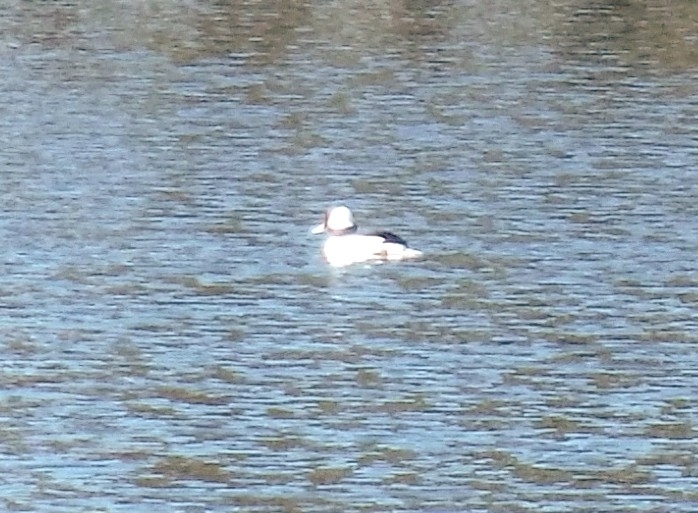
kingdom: Animalia
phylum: Chordata
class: Aves
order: Anseriformes
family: Anatidae
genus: Bucephala
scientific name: Bucephala albeola
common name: Bufflehead
